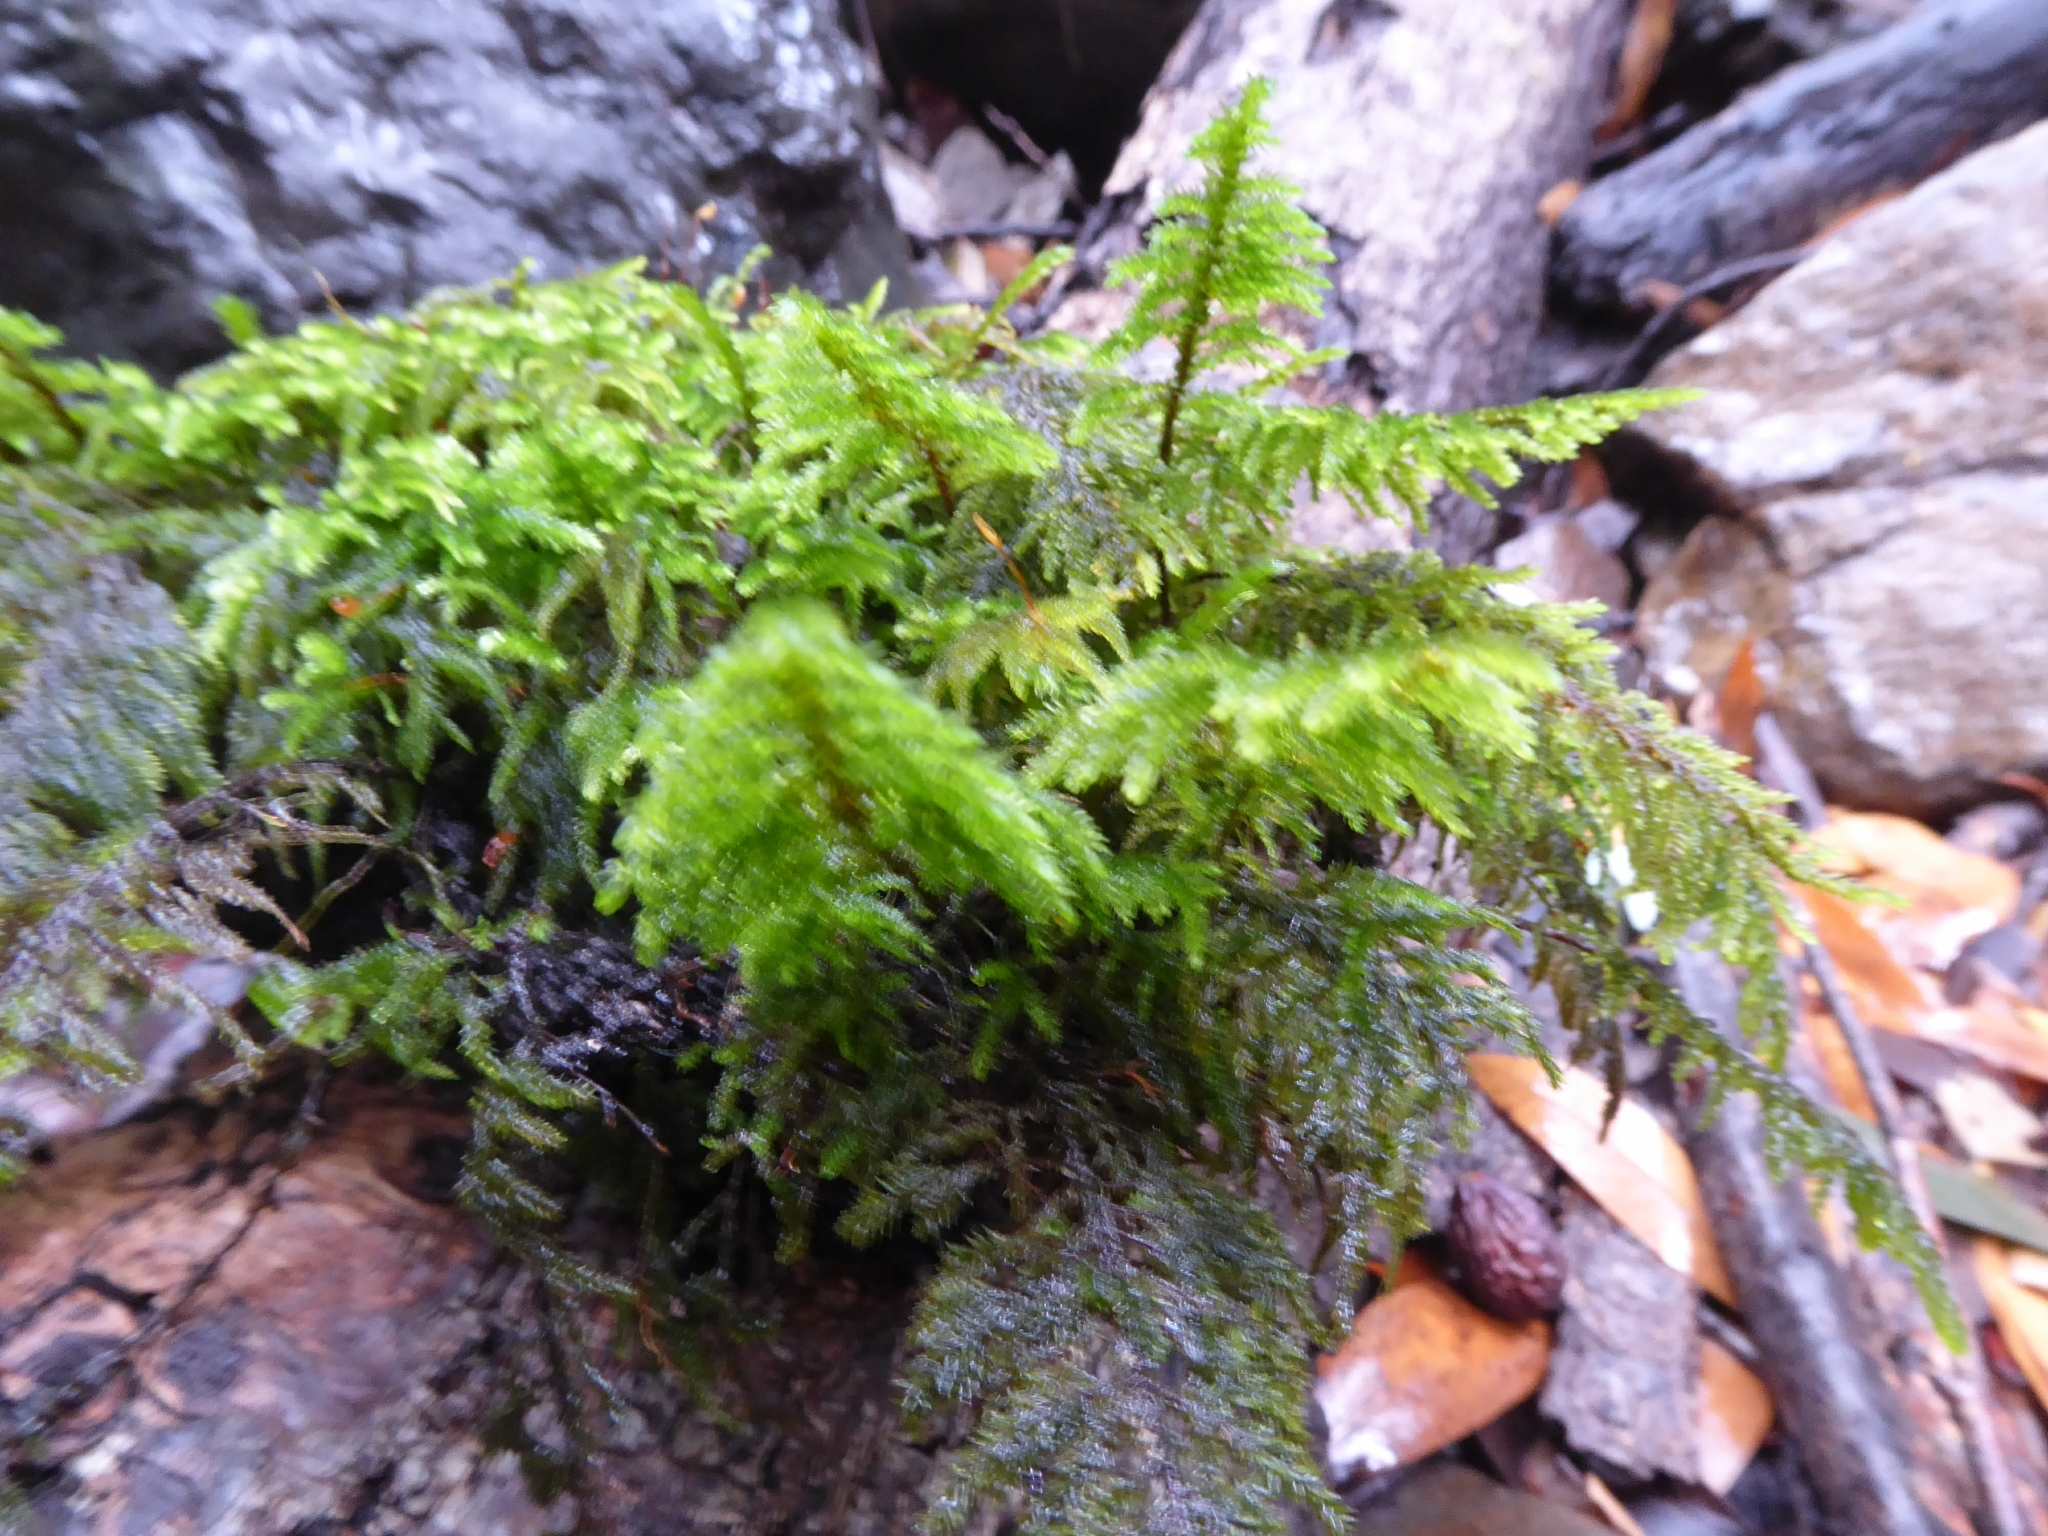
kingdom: Plantae
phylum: Bryophyta
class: Bryopsida
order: Hypnales
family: Cryphaeaceae
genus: Dendroalsia
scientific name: Dendroalsia abietina
